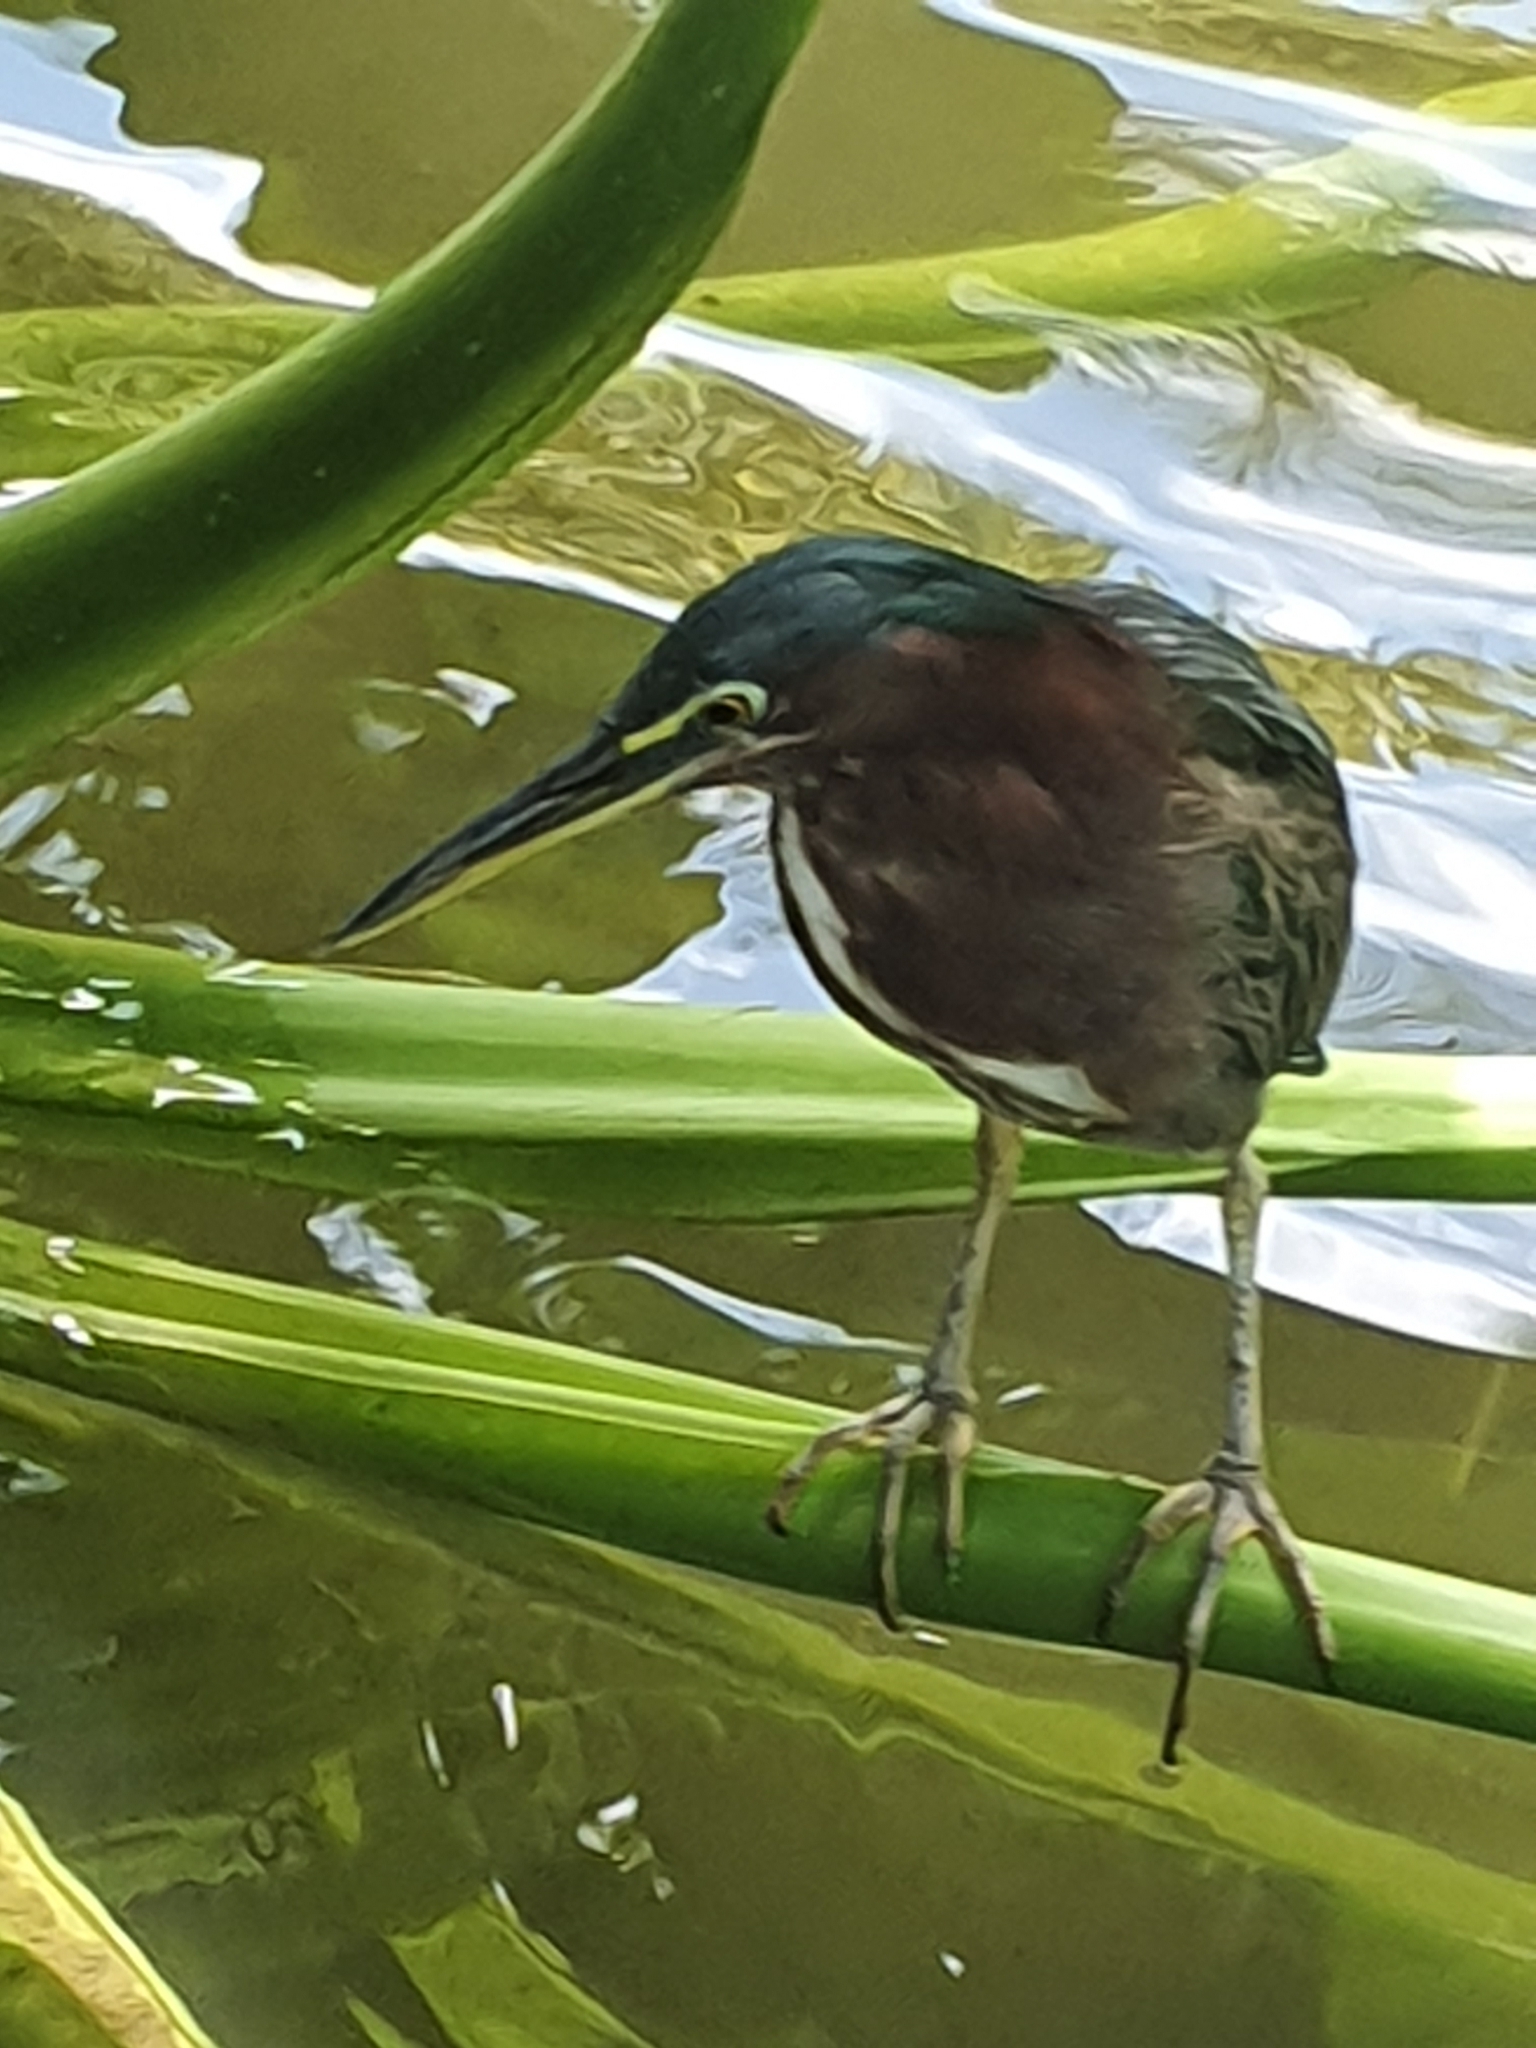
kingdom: Animalia
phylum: Chordata
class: Aves
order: Pelecaniformes
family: Ardeidae
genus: Butorides
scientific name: Butorides virescens
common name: Green heron
